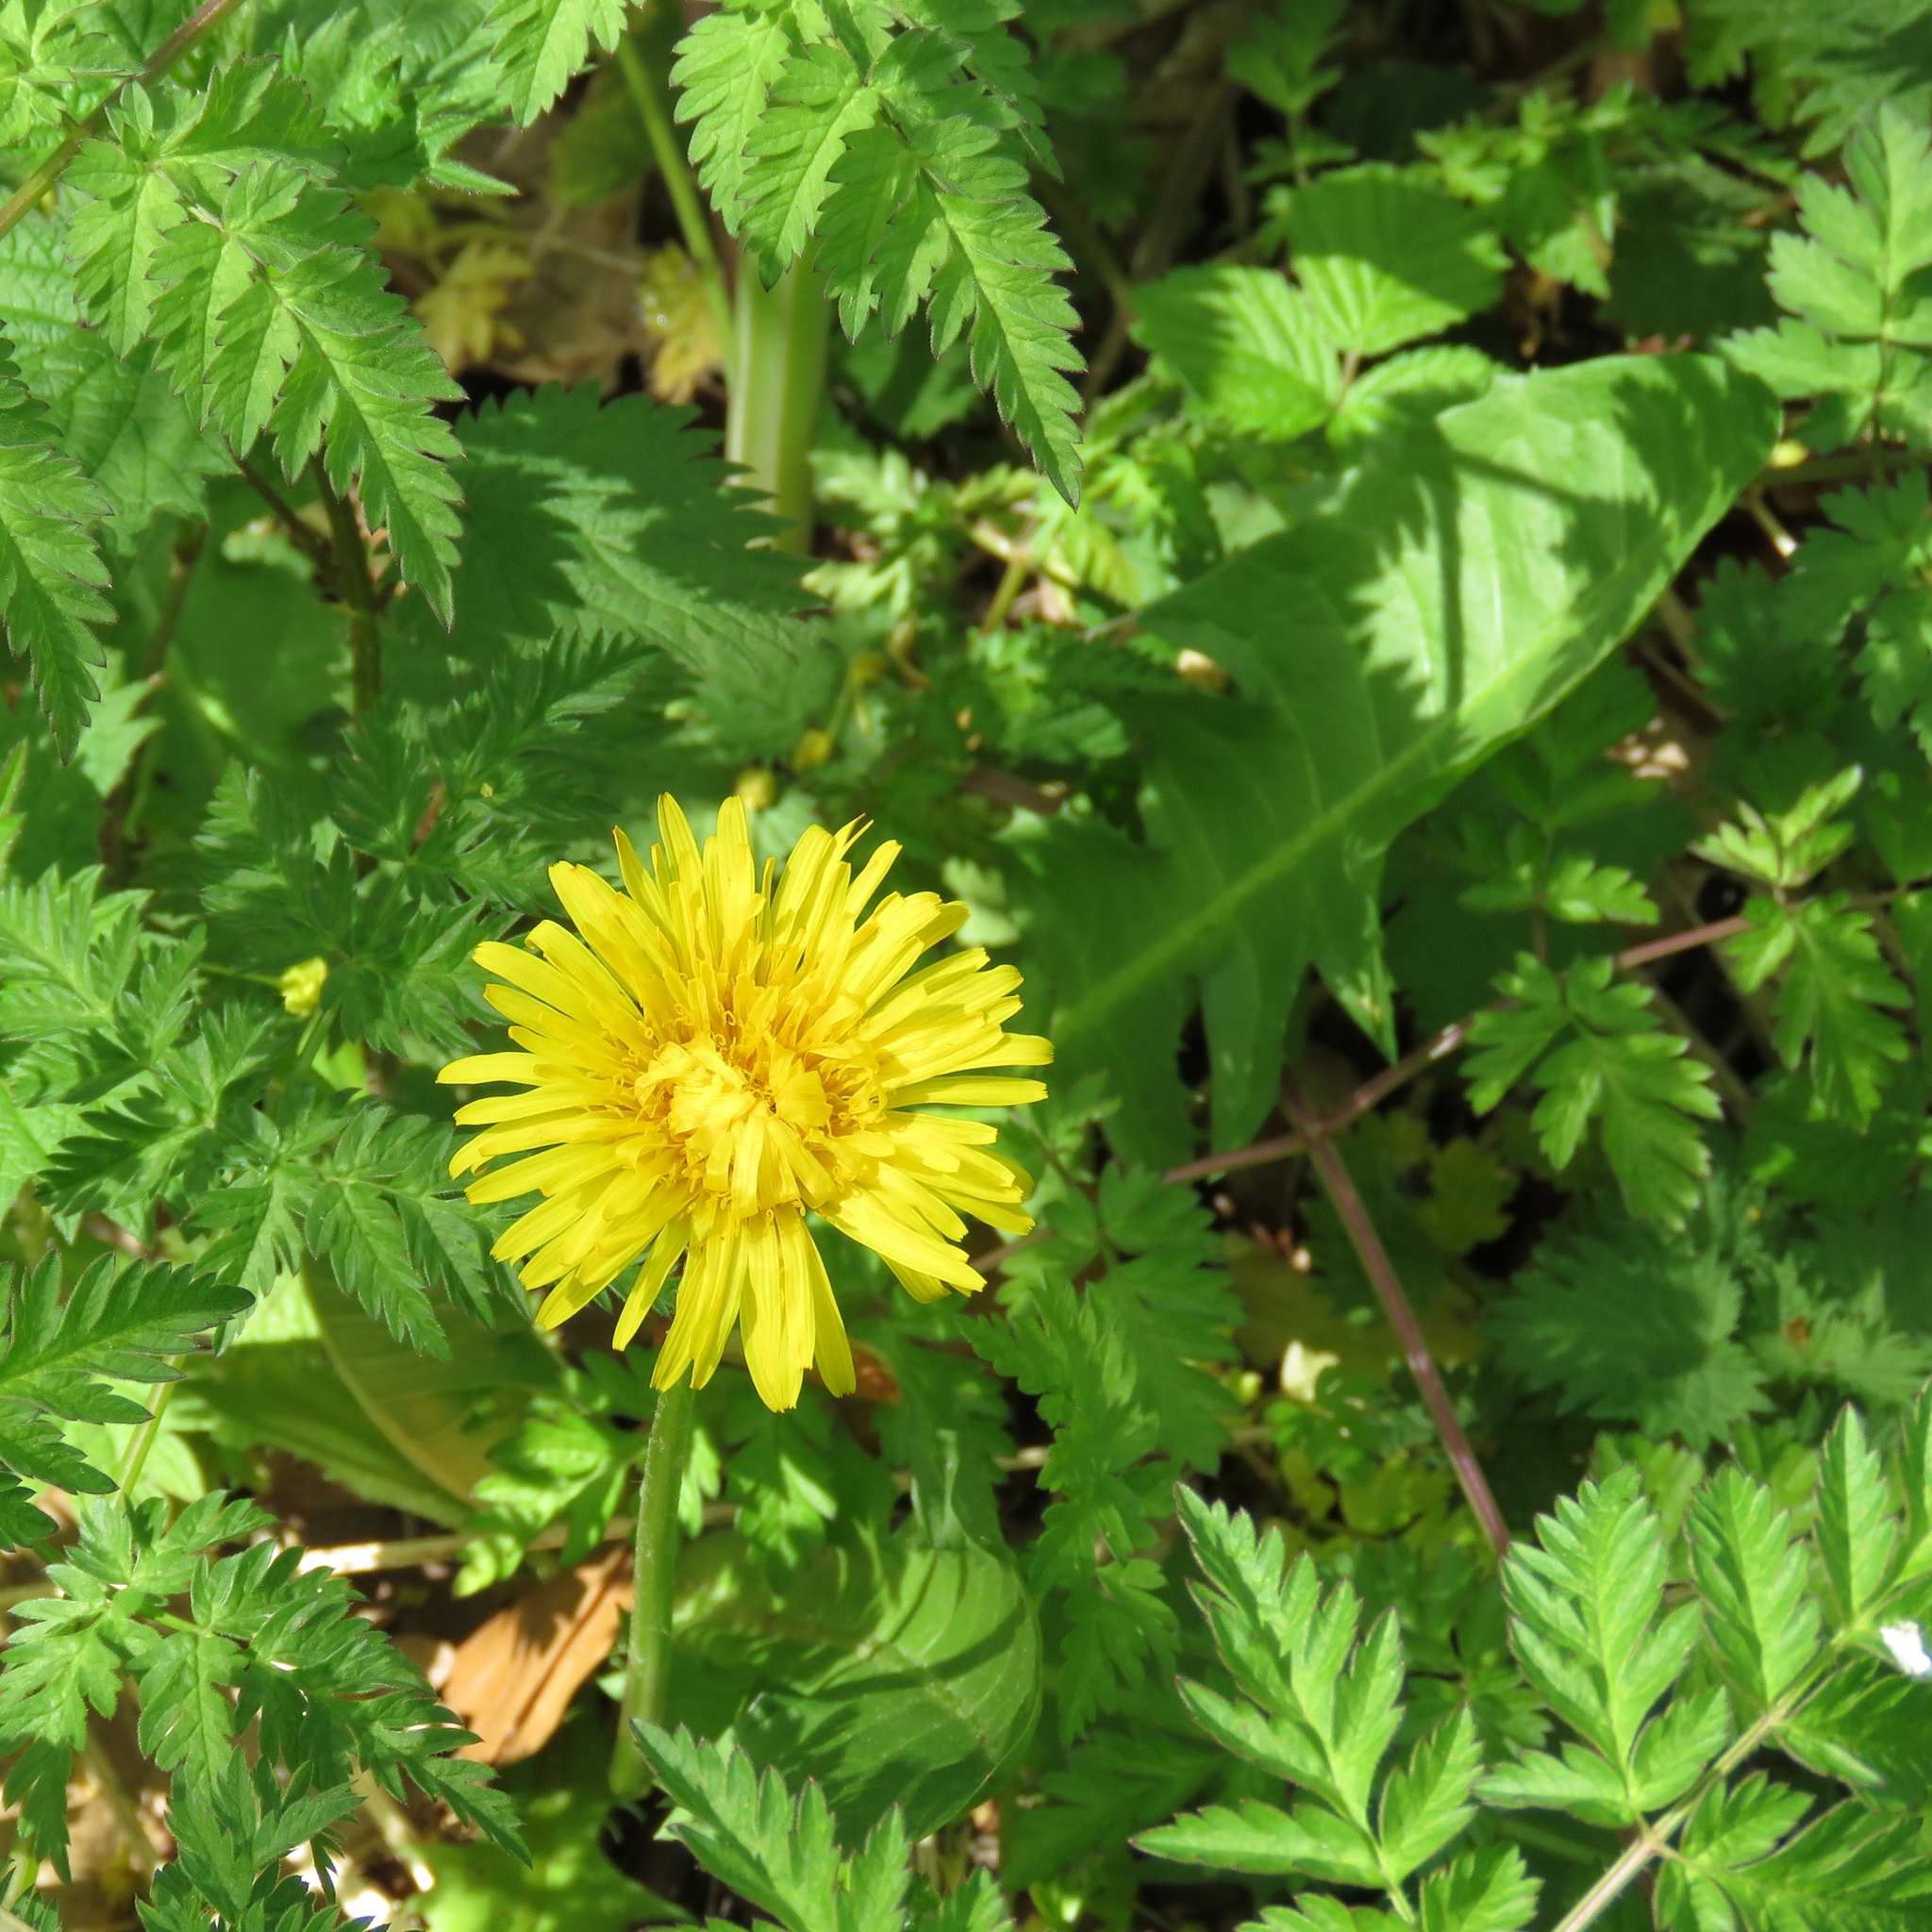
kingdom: Plantae
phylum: Tracheophyta
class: Magnoliopsida
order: Asterales
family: Asteraceae
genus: Taraxacum
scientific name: Taraxacum officinale
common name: Common dandelion
